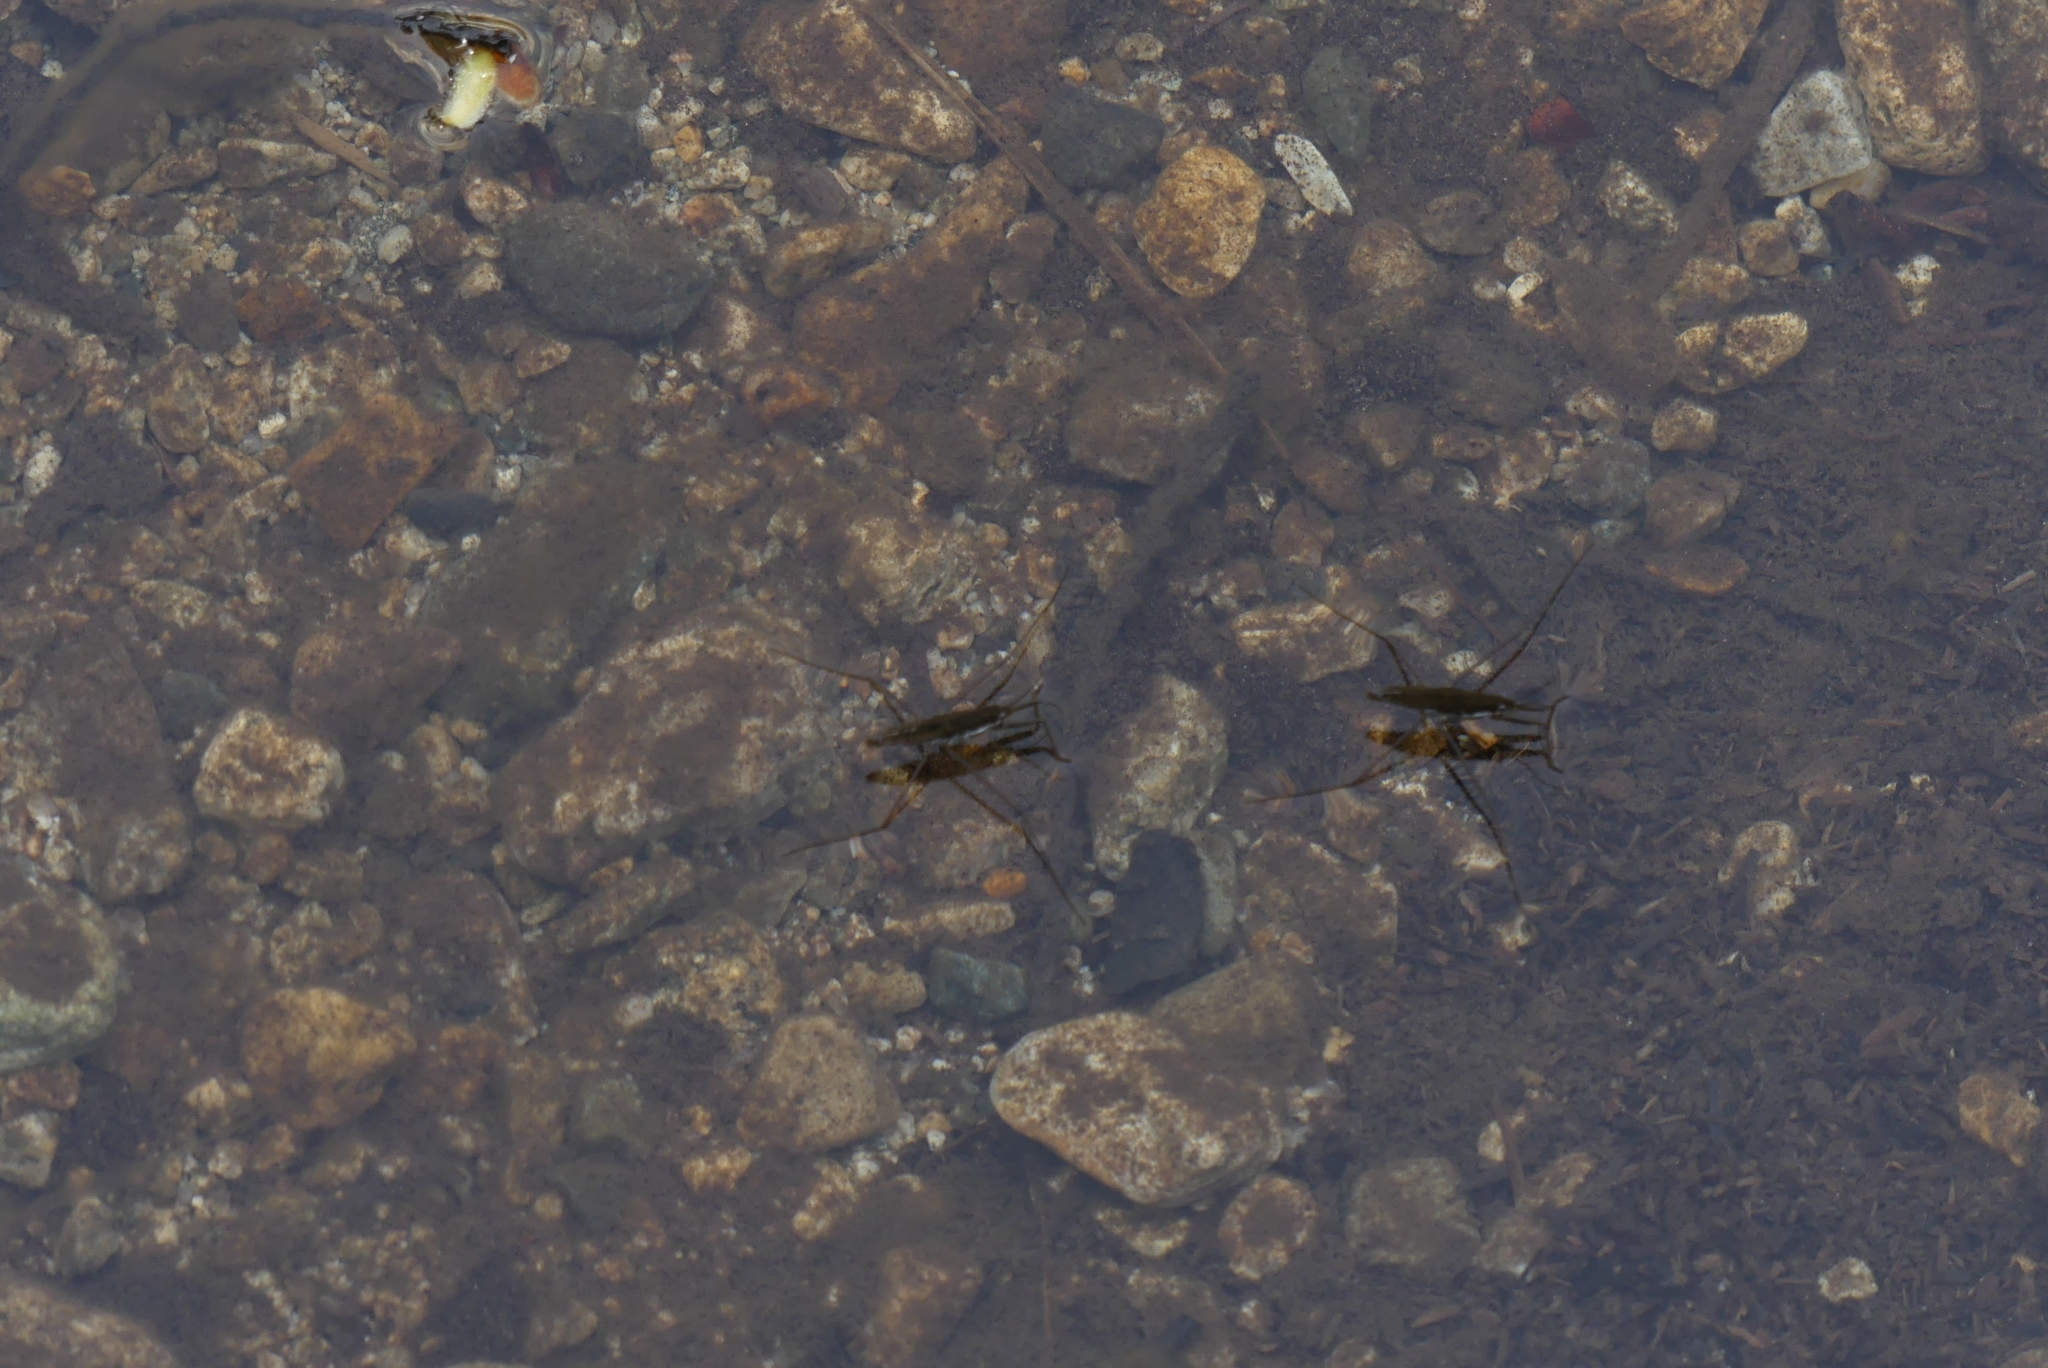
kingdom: Animalia
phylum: Arthropoda
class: Insecta
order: Hemiptera
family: Gerridae
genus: Aquarius
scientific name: Aquarius remigis
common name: Common water strider
